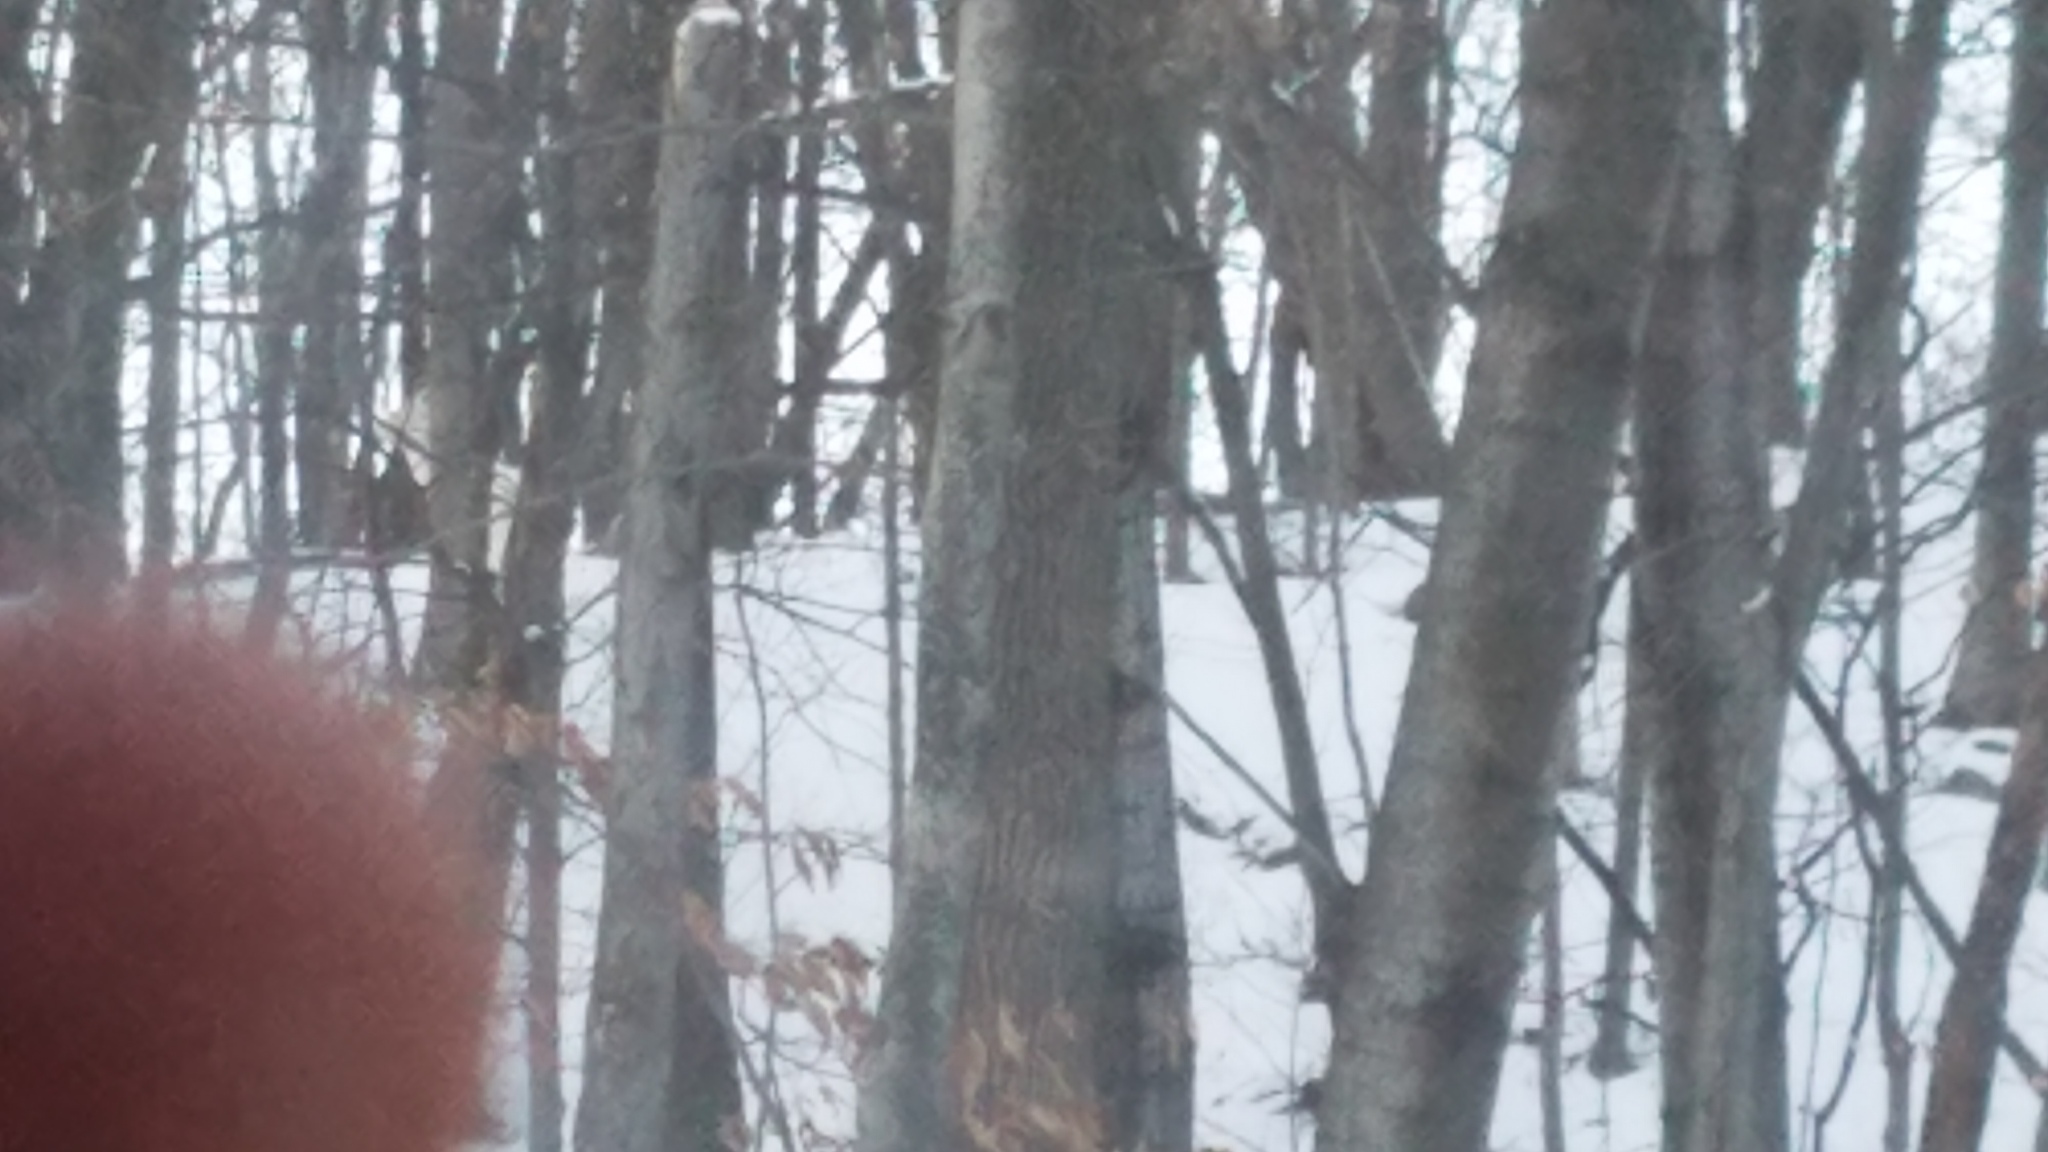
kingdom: Animalia
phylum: Chordata
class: Mammalia
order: Artiodactyla
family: Cervidae
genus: Odocoileus
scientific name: Odocoileus virginianus
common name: White-tailed deer
